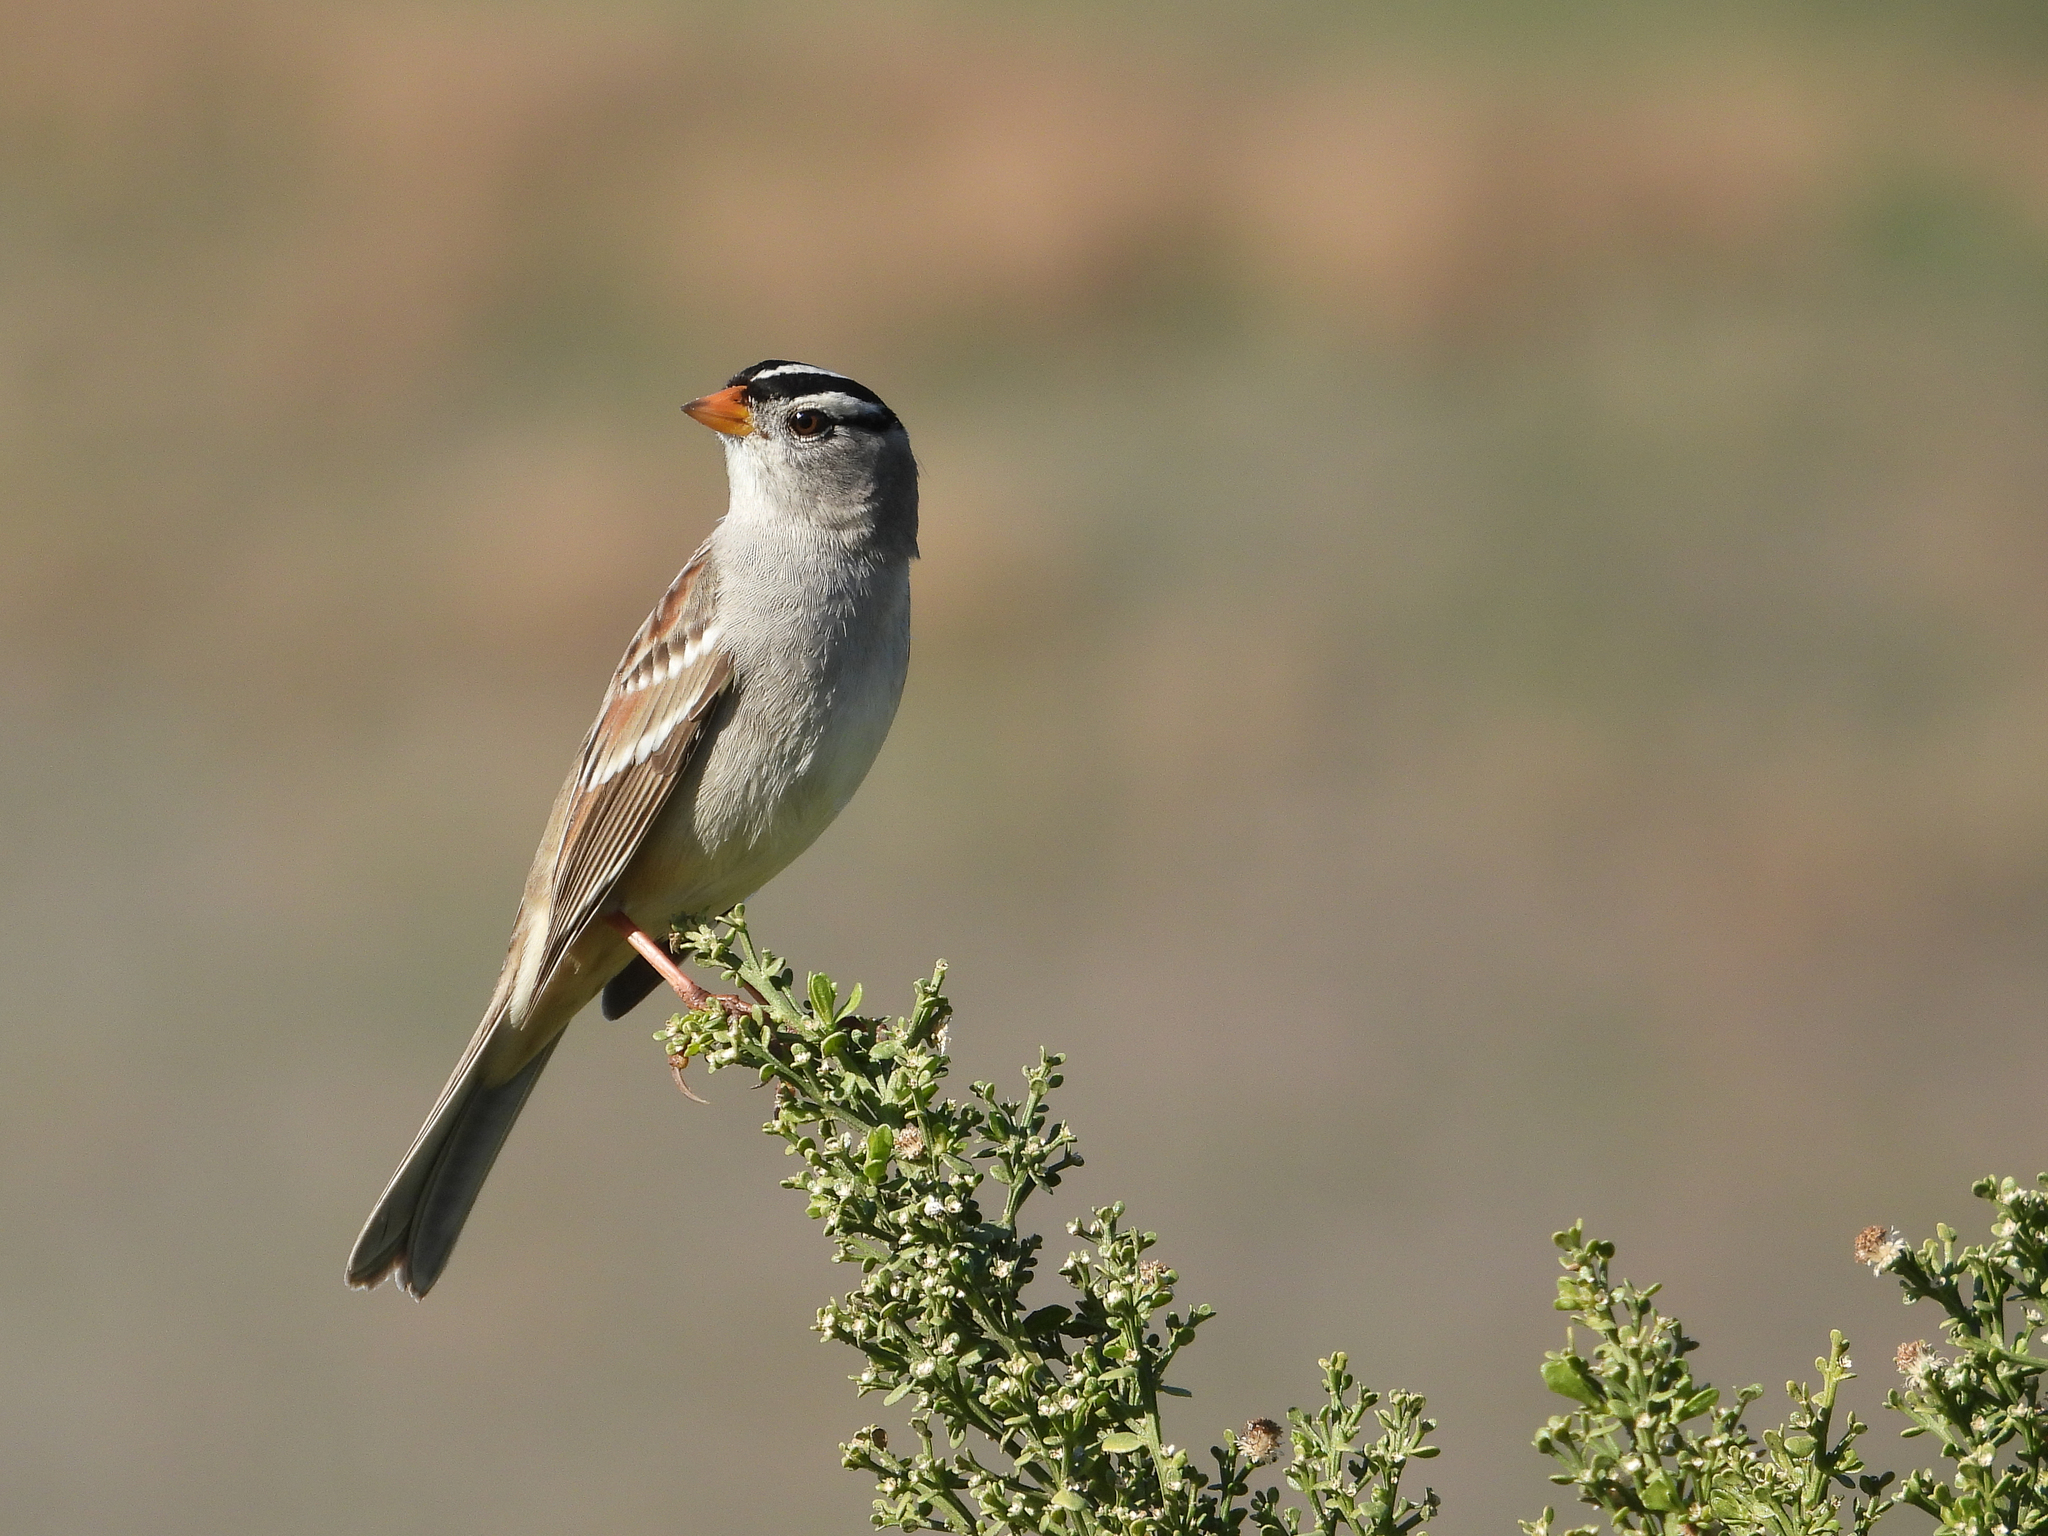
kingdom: Animalia
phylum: Chordata
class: Aves
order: Passeriformes
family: Passerellidae
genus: Zonotrichia
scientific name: Zonotrichia leucophrys
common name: White-crowned sparrow
